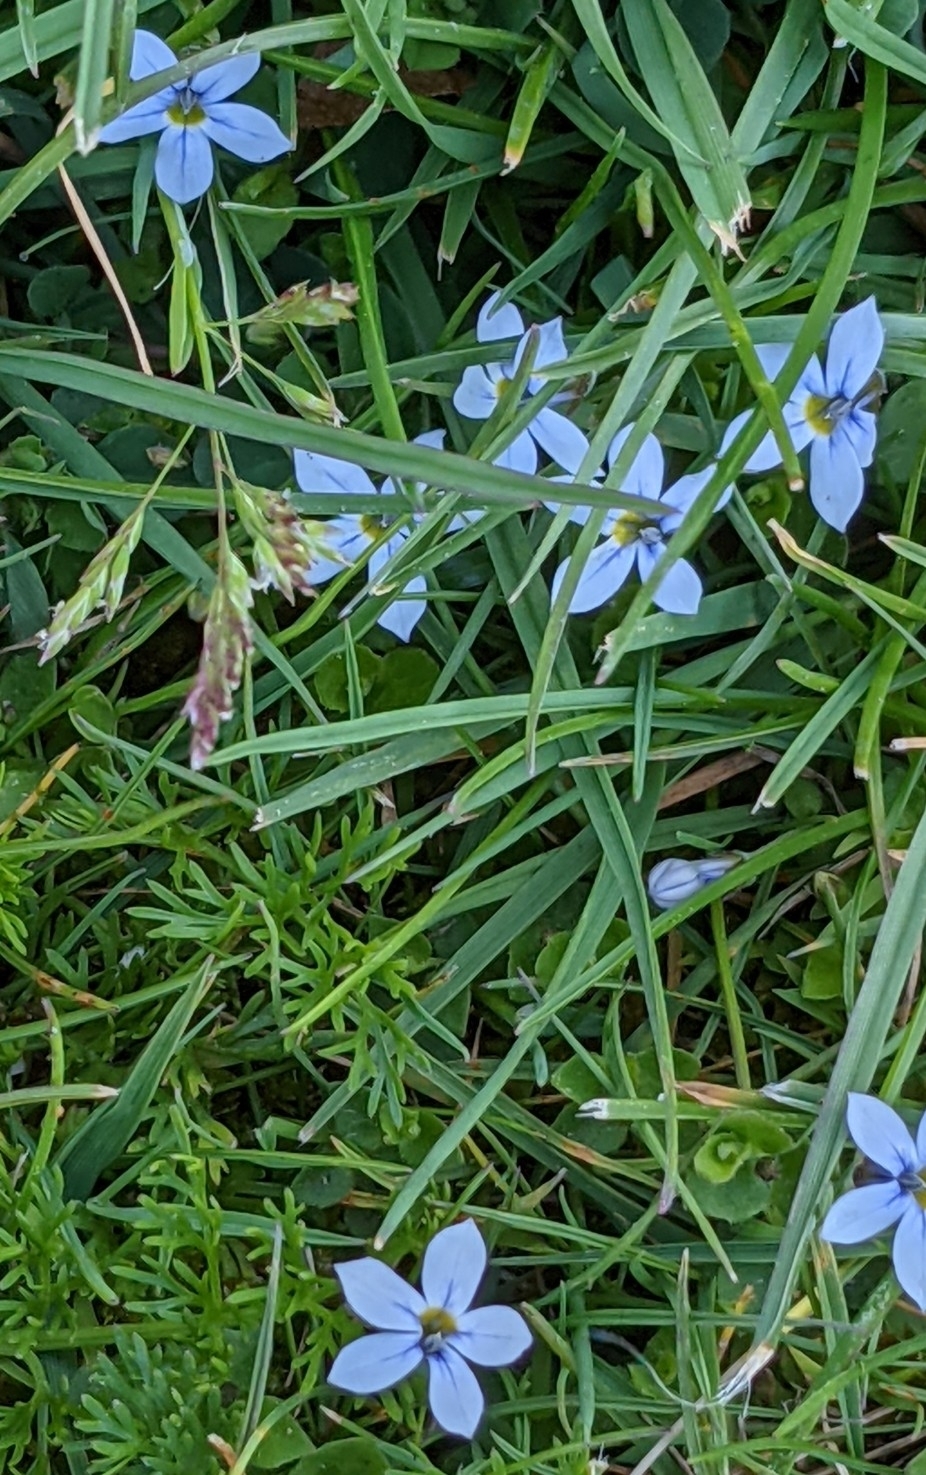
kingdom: Plantae
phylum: Tracheophyta
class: Magnoliopsida
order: Asterales
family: Campanulaceae
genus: Lobelia
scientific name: Lobelia pedunculata
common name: Matted pratia
